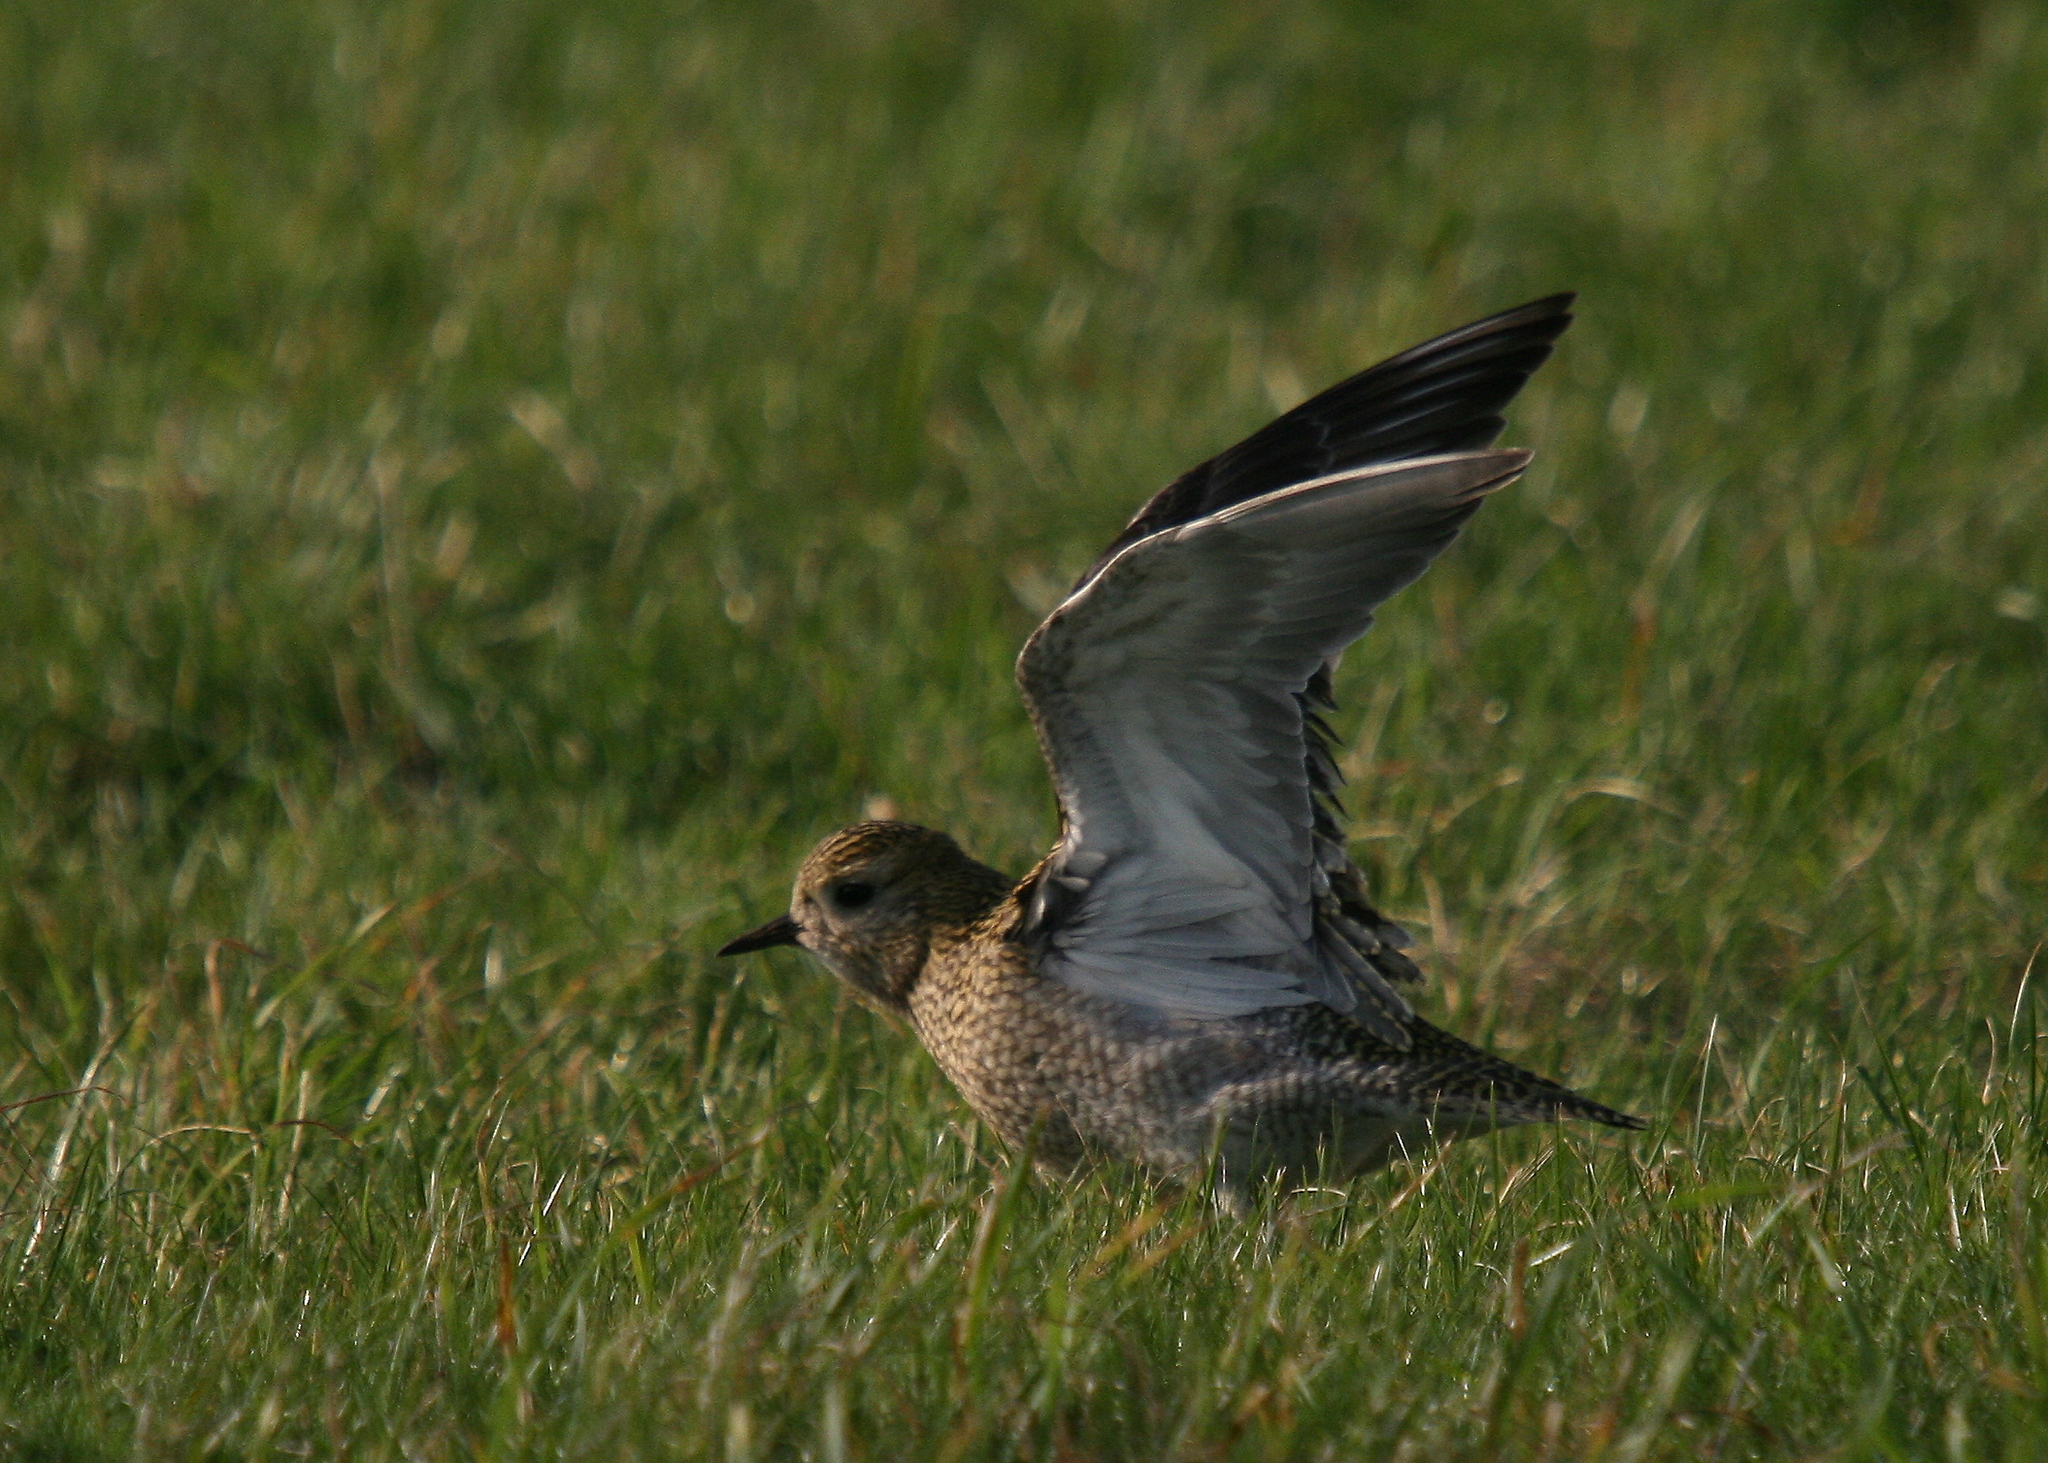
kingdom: Animalia
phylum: Chordata
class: Aves
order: Charadriiformes
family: Charadriidae
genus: Pluvialis
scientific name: Pluvialis apricaria
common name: European golden plover
